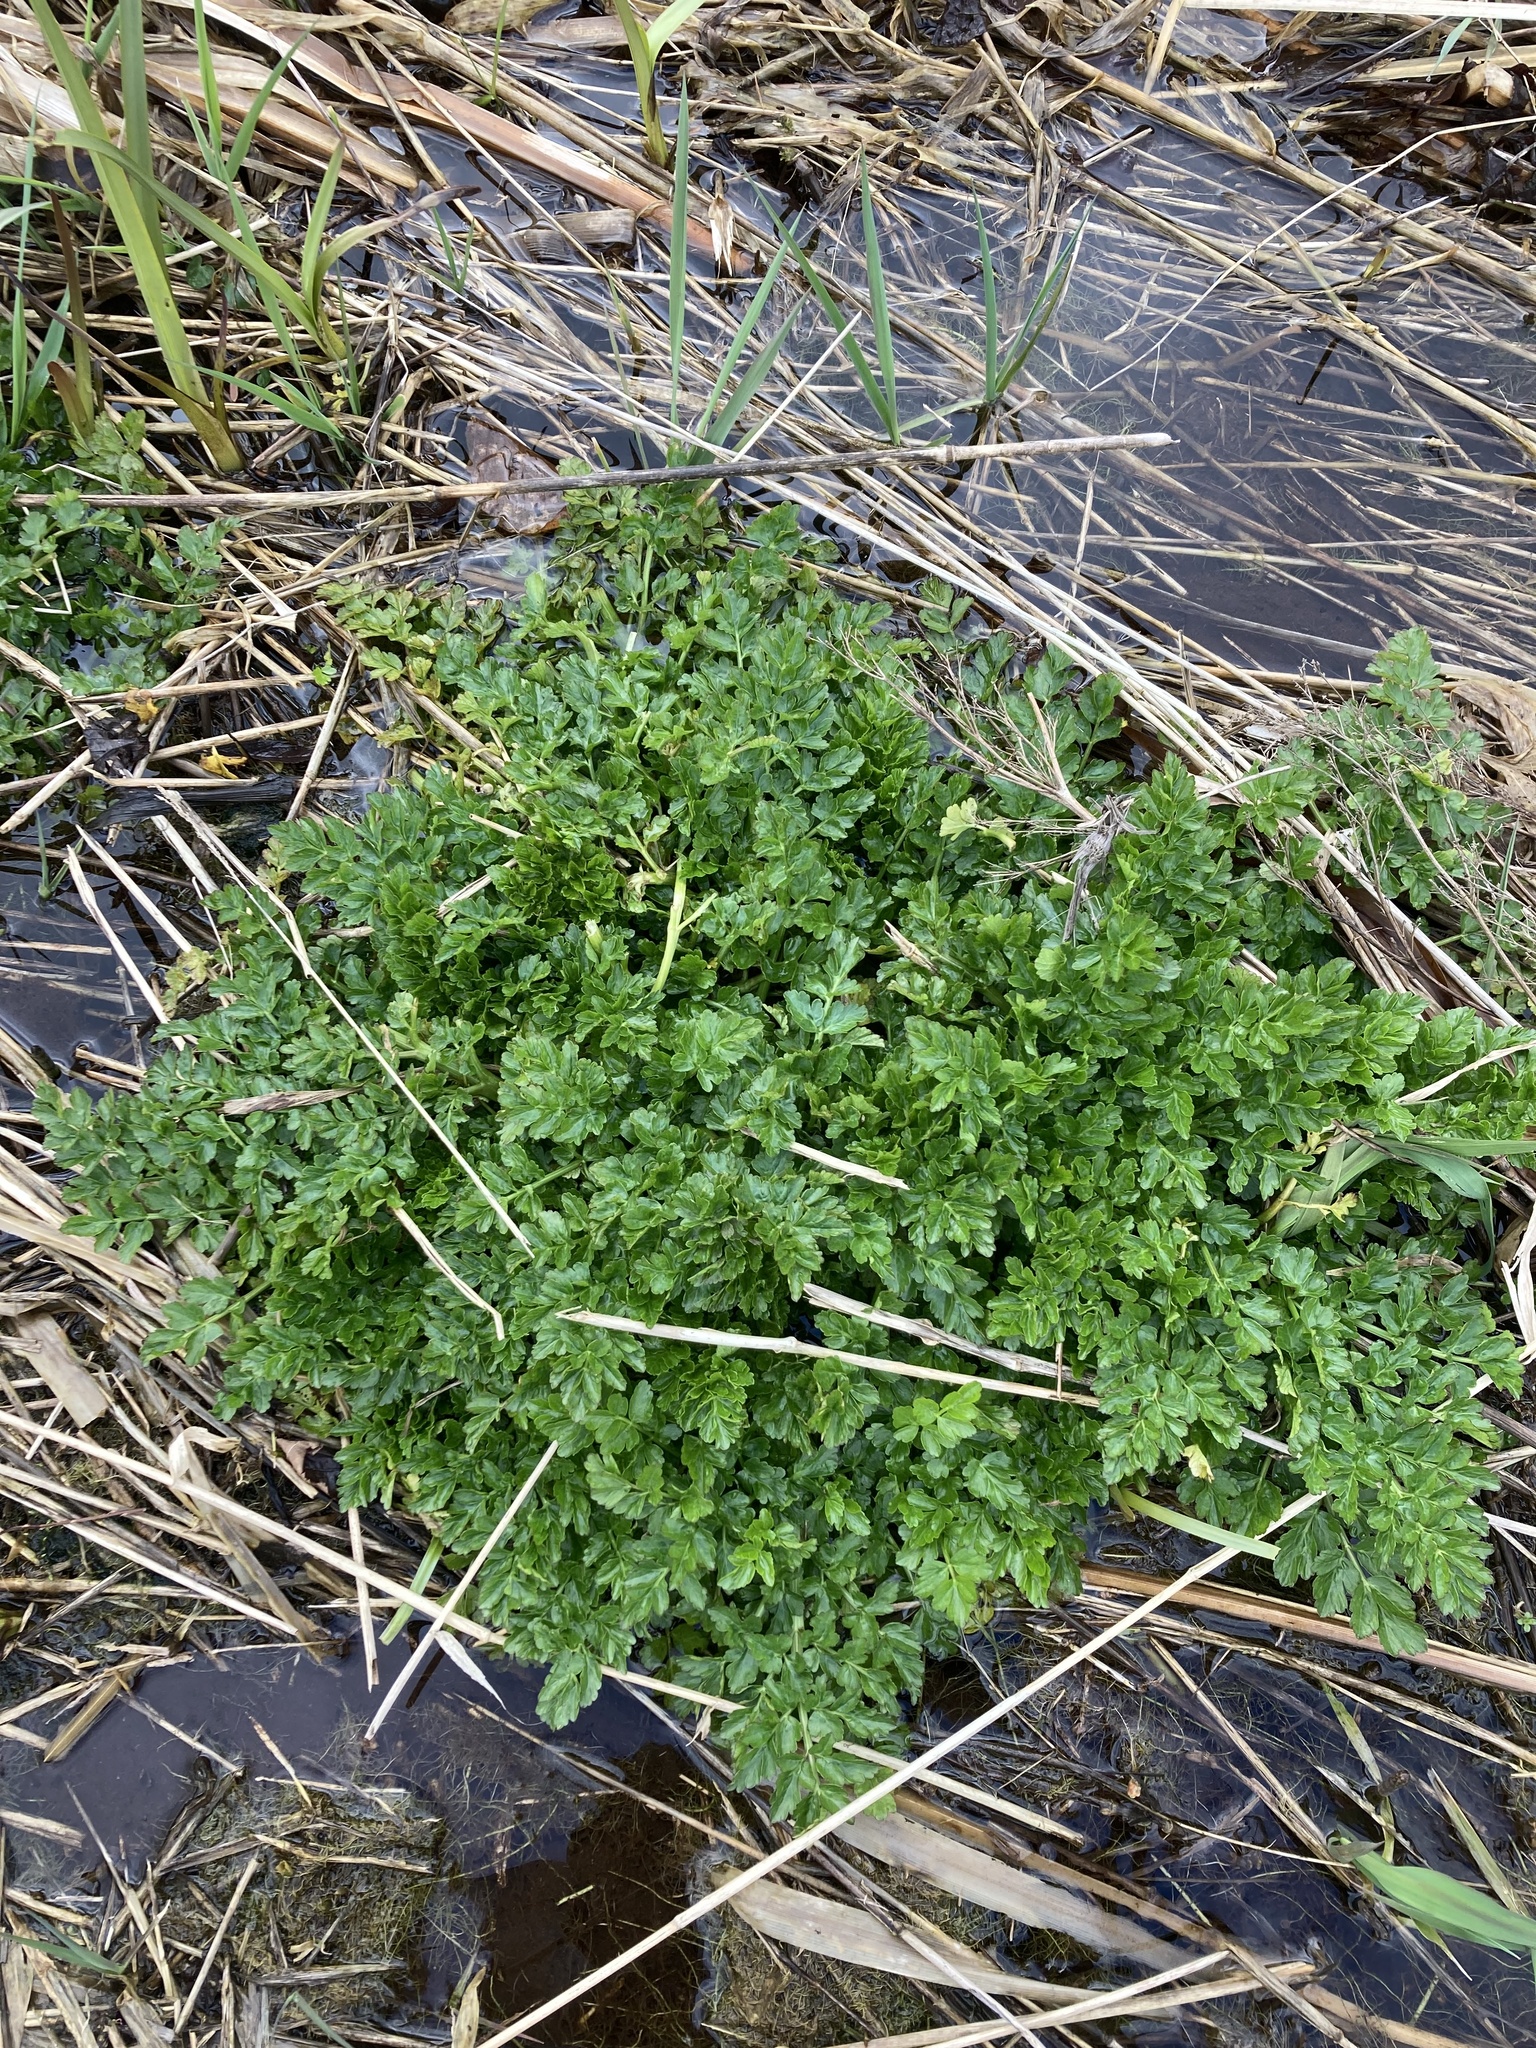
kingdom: Plantae
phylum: Tracheophyta
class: Magnoliopsida
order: Apiales
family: Apiaceae
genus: Oenanthe
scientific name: Oenanthe crocata
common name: Hemlock water-dropwort
